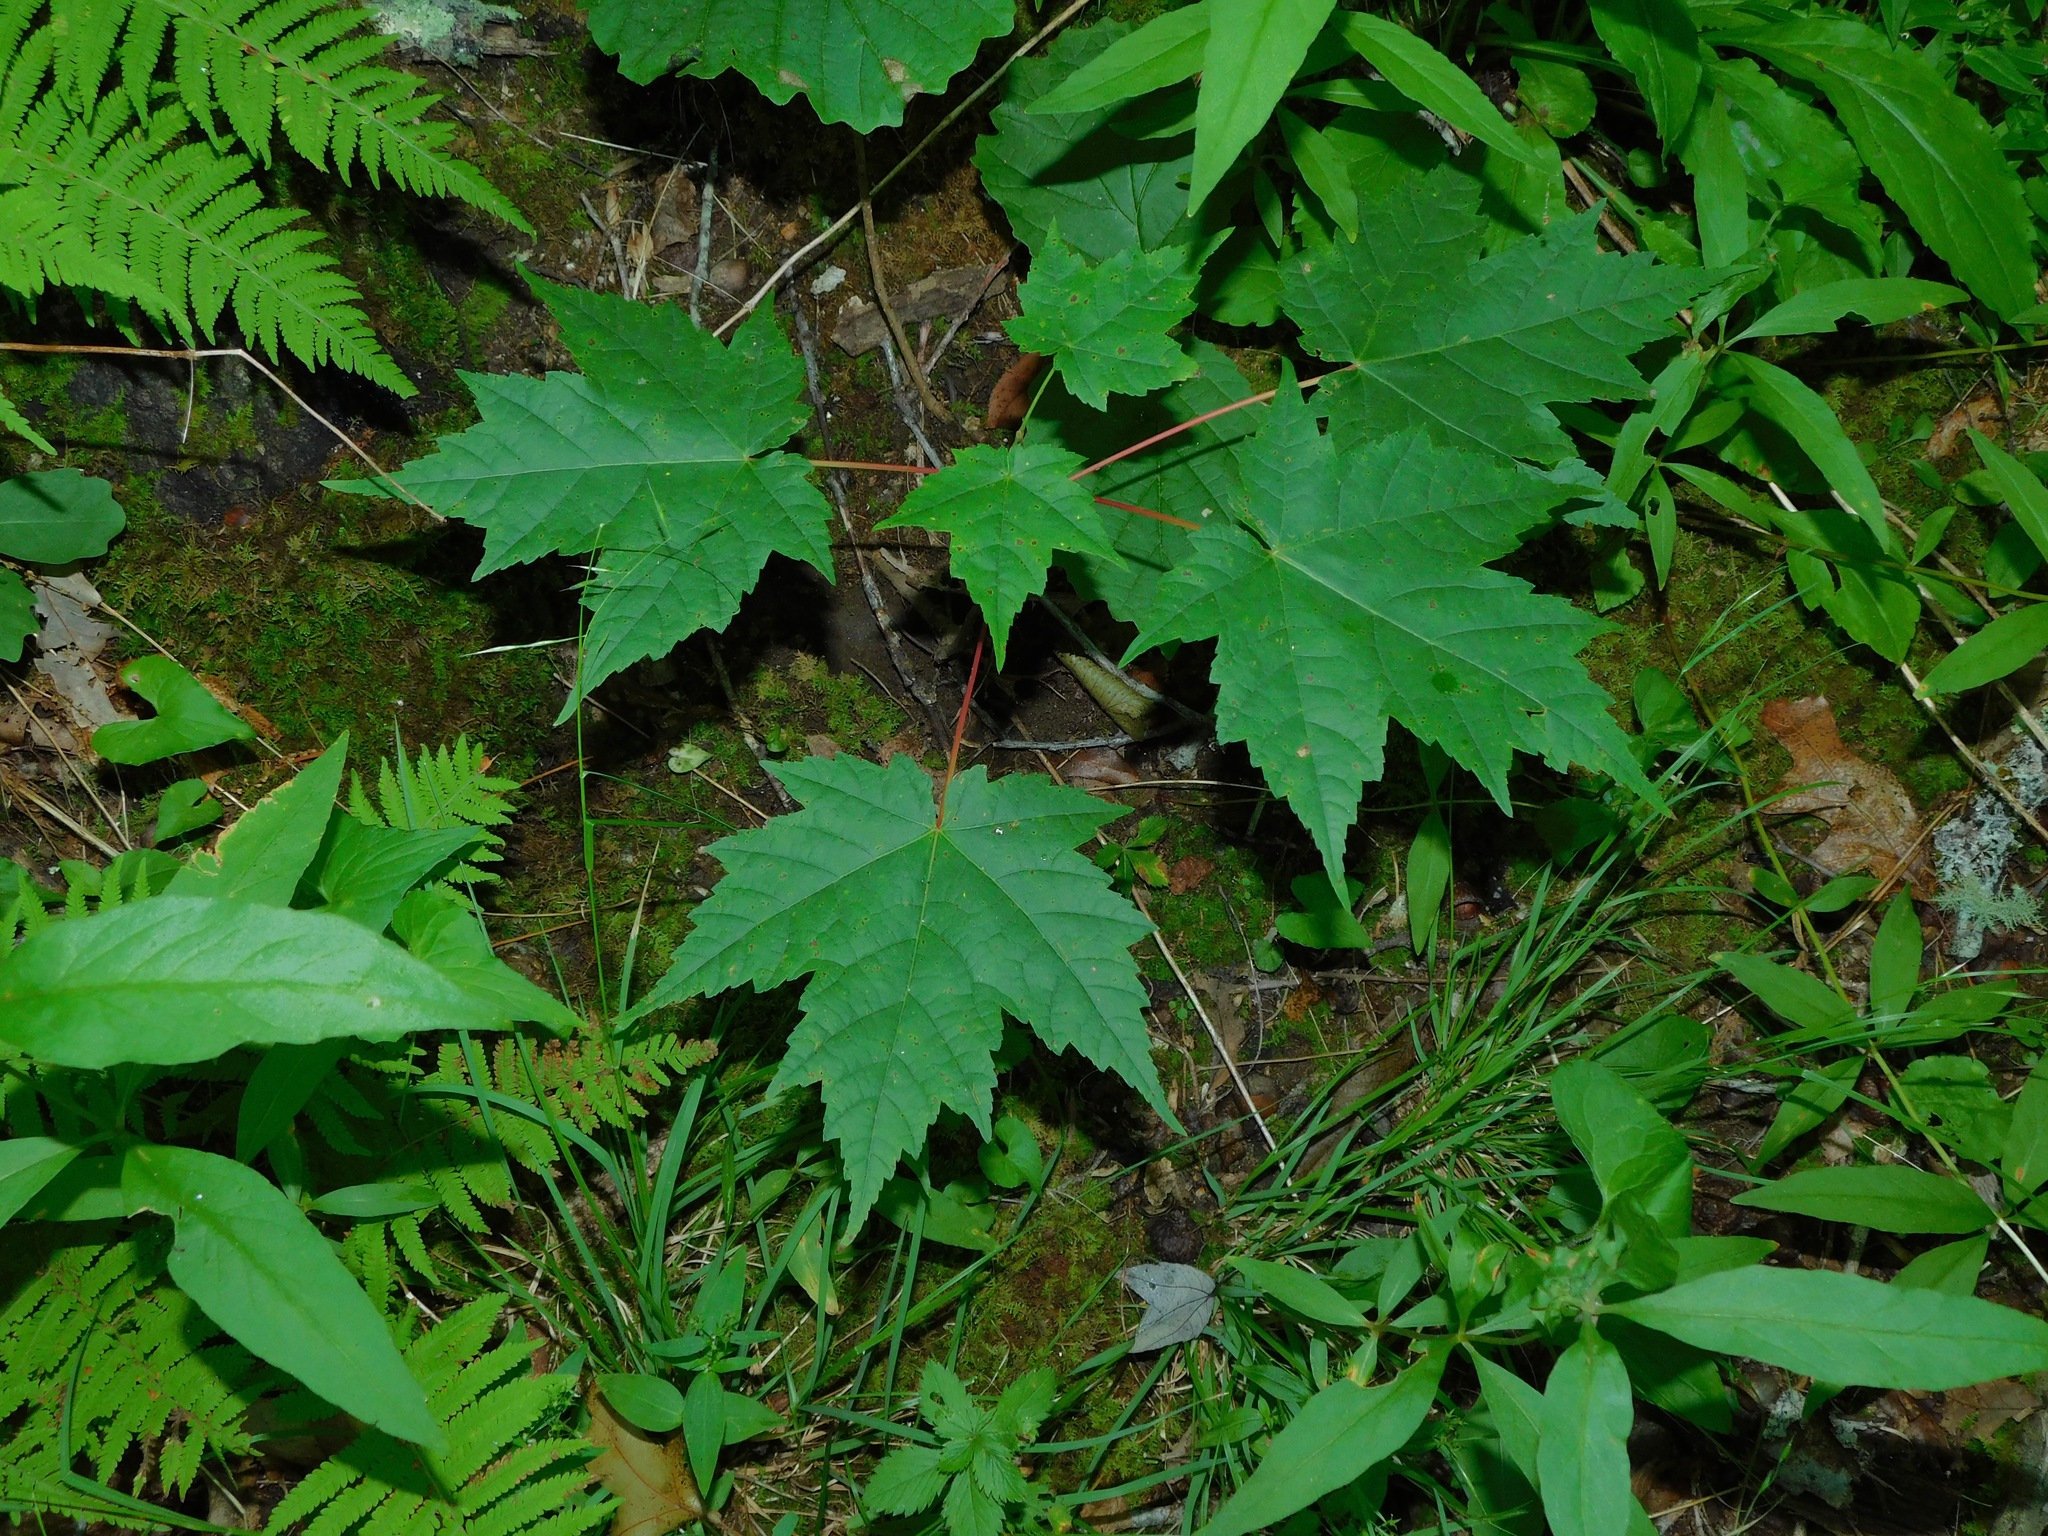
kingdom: Plantae
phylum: Tracheophyta
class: Magnoliopsida
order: Sapindales
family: Sapindaceae
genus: Acer
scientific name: Acer freemanii
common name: Freeman maple
